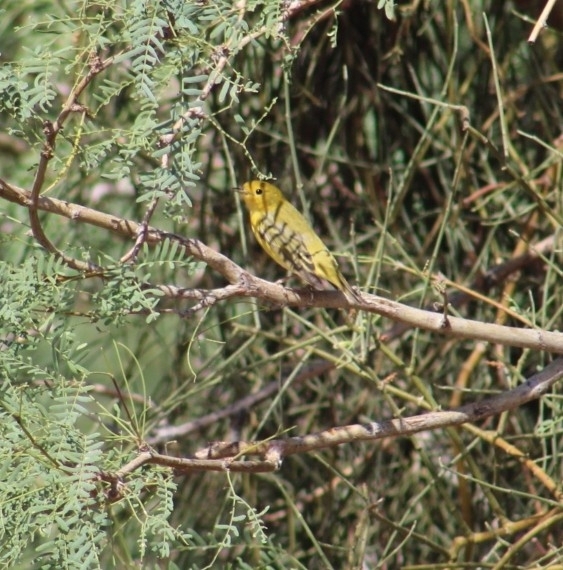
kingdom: Animalia
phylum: Chordata
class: Aves
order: Passeriformes
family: Parulidae
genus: Setophaga
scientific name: Setophaga petechia
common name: Yellow warbler
